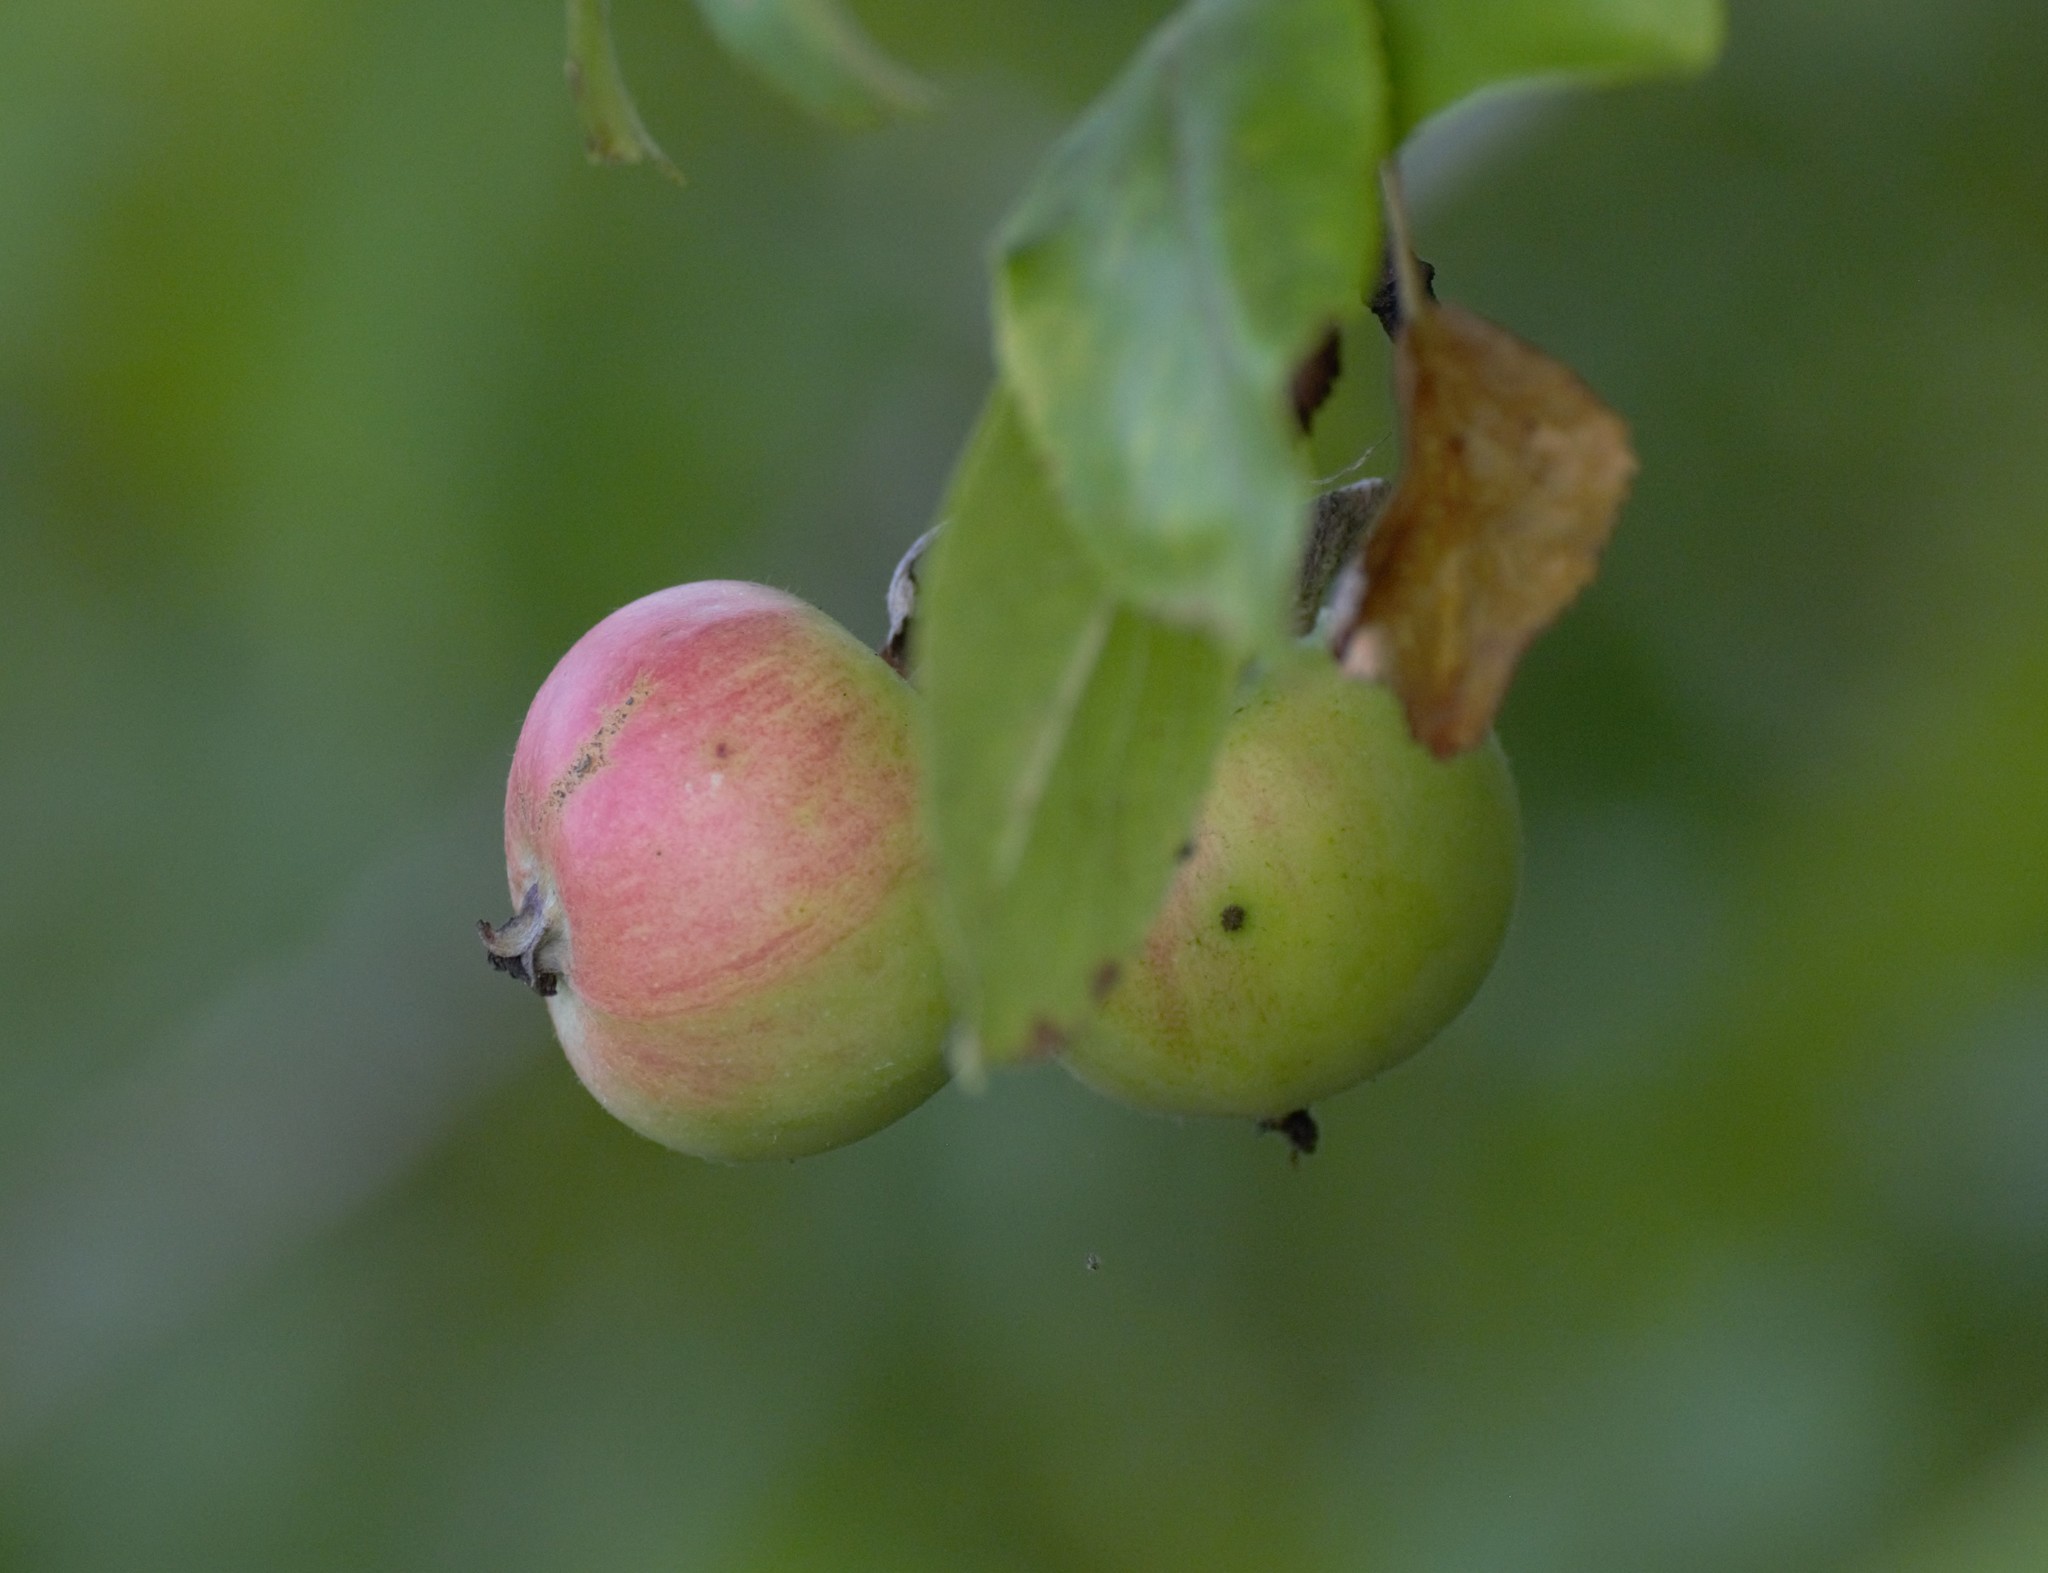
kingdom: Plantae
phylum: Tracheophyta
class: Magnoliopsida
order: Rosales
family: Rosaceae
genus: Malus
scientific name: Malus domestica
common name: Apple
